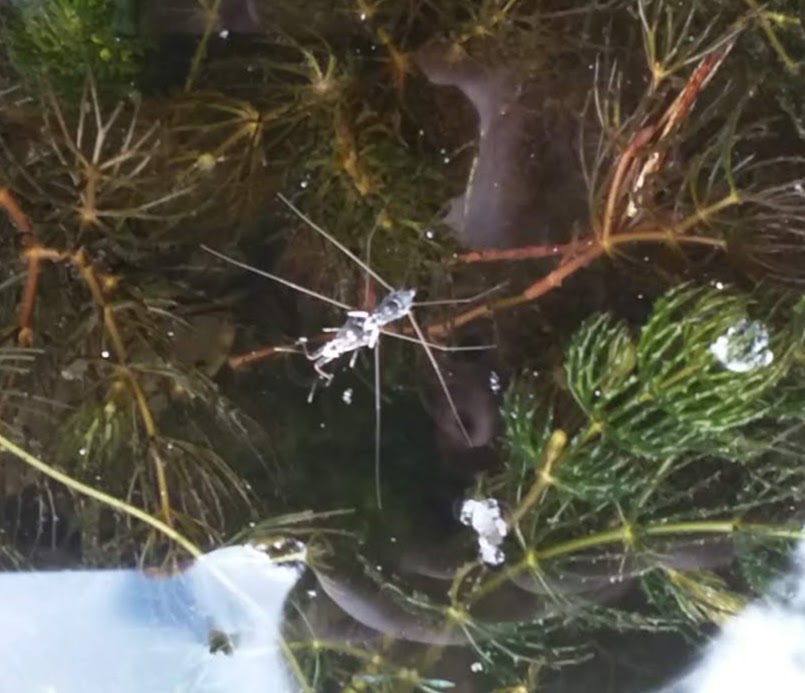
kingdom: Animalia
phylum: Arthropoda
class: Insecta
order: Hemiptera
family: Gerridae
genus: Neogerris
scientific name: Neogerris hesione
